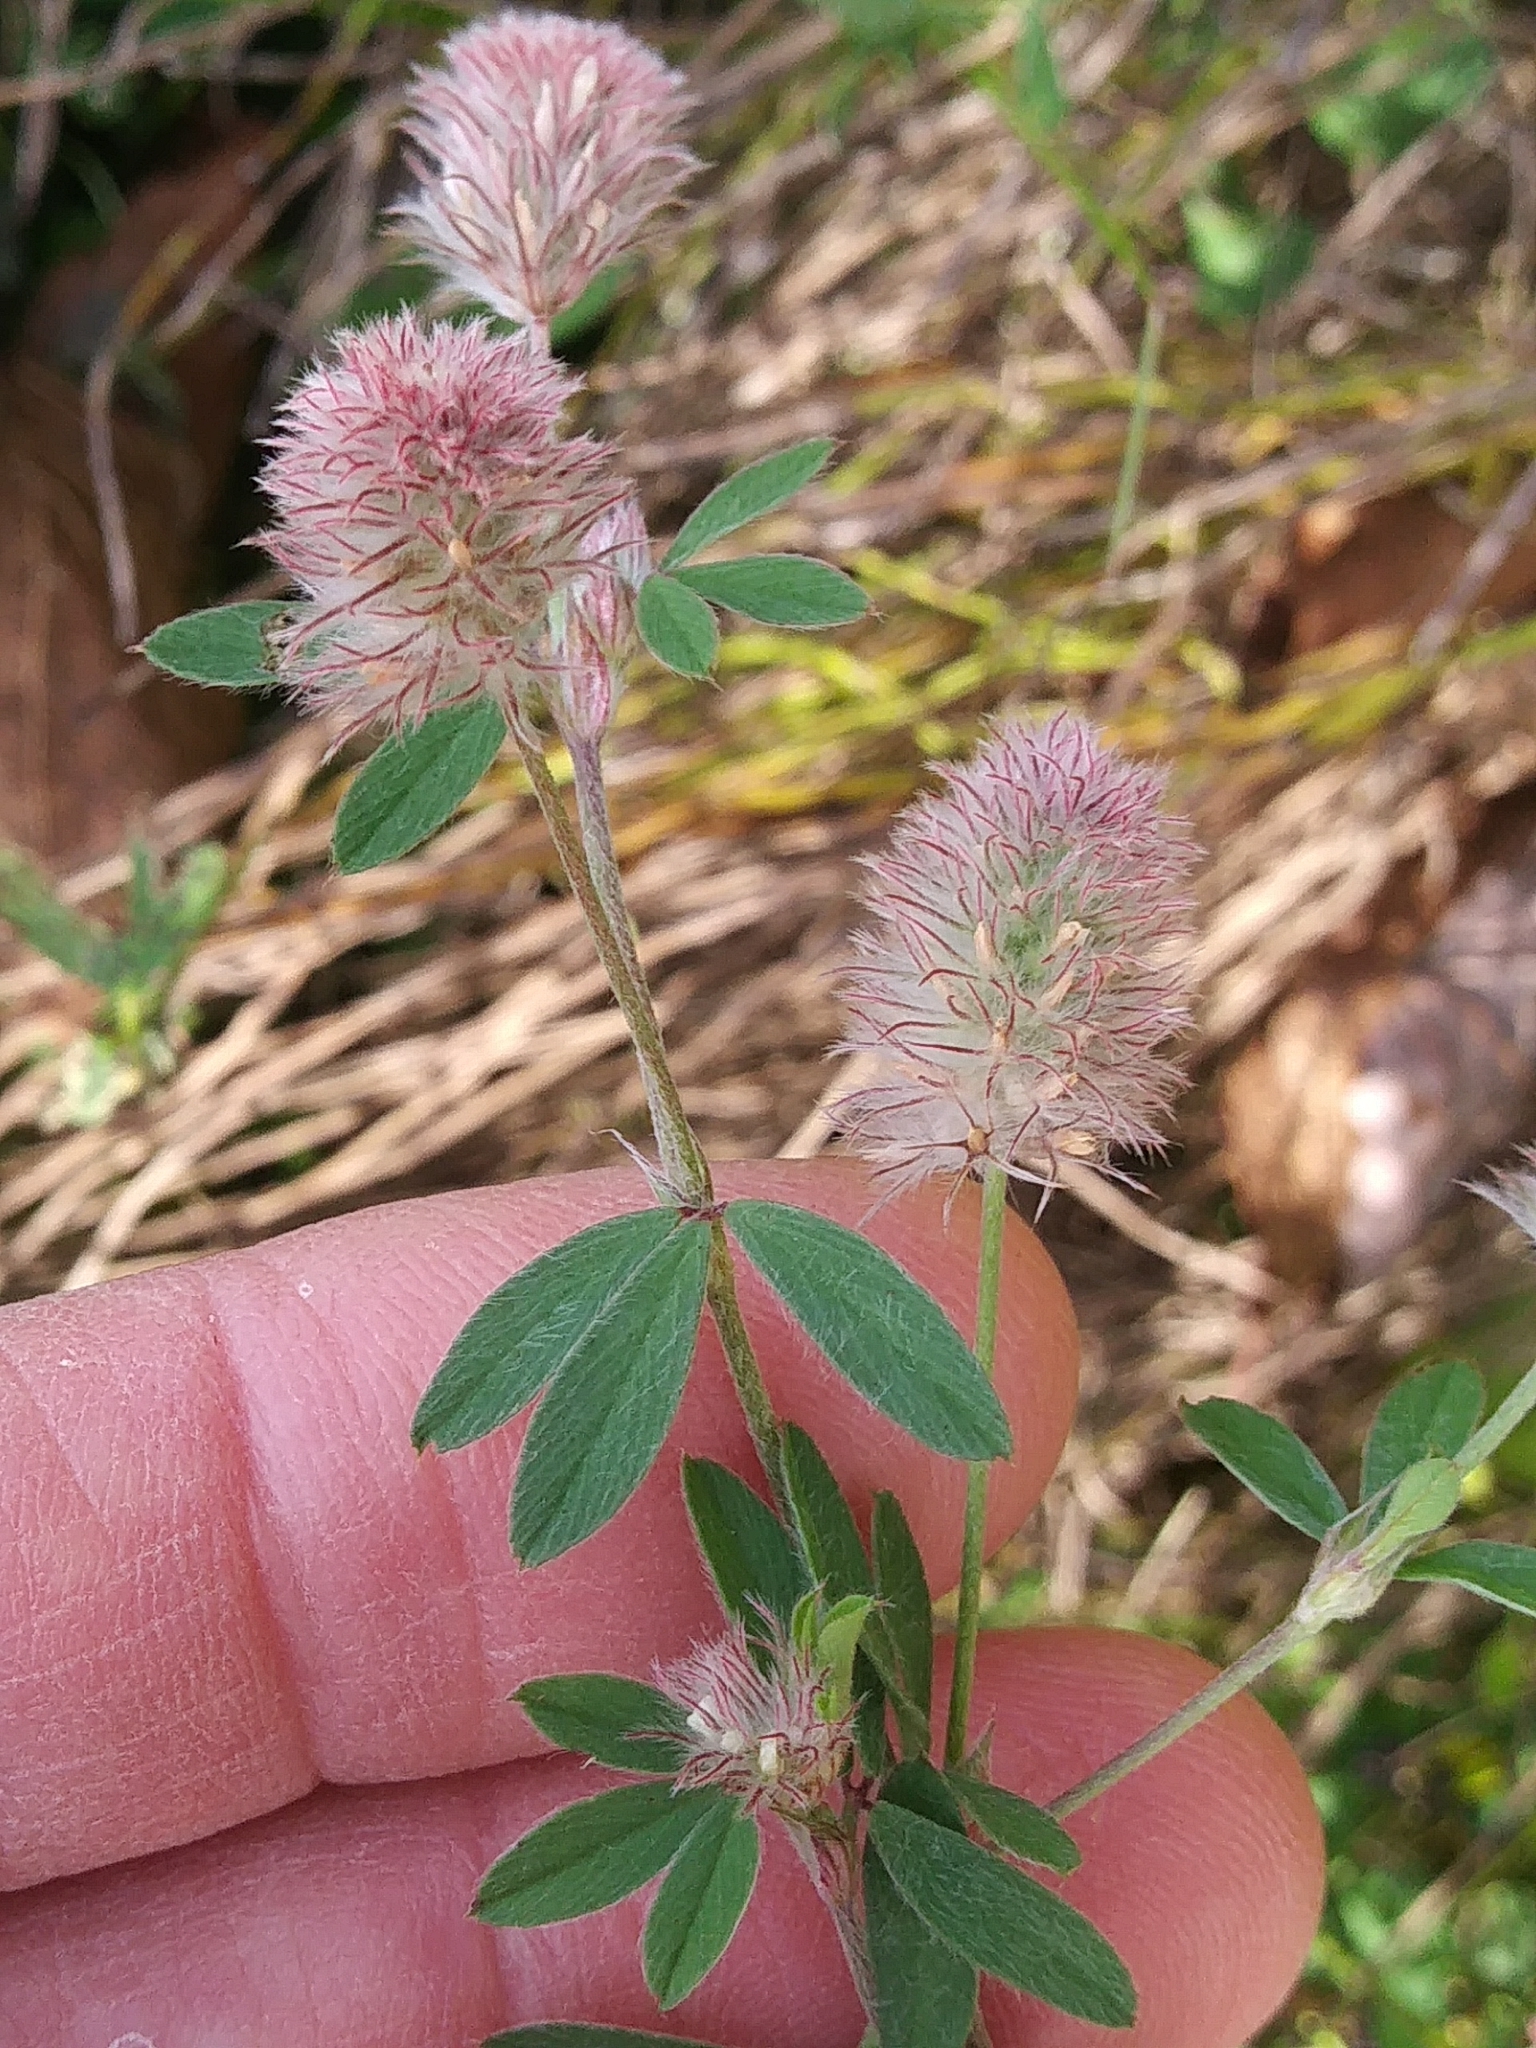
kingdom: Plantae
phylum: Tracheophyta
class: Magnoliopsida
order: Fabales
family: Fabaceae
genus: Trifolium
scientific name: Trifolium arvense
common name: Hare's-foot clover
